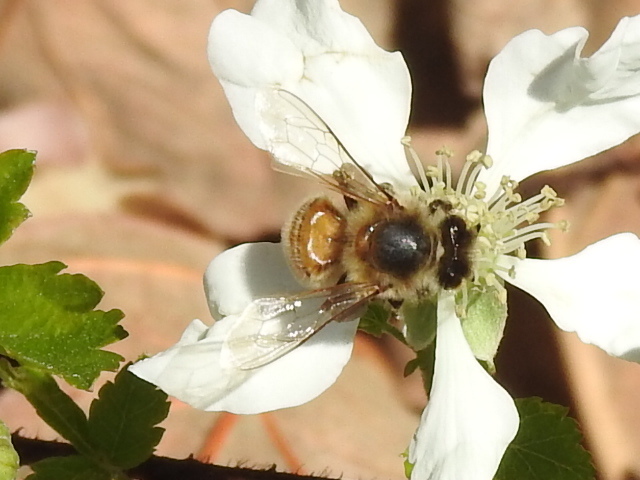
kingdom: Animalia
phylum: Arthropoda
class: Insecta
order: Hymenoptera
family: Apidae
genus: Apis
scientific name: Apis mellifera
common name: Honey bee
